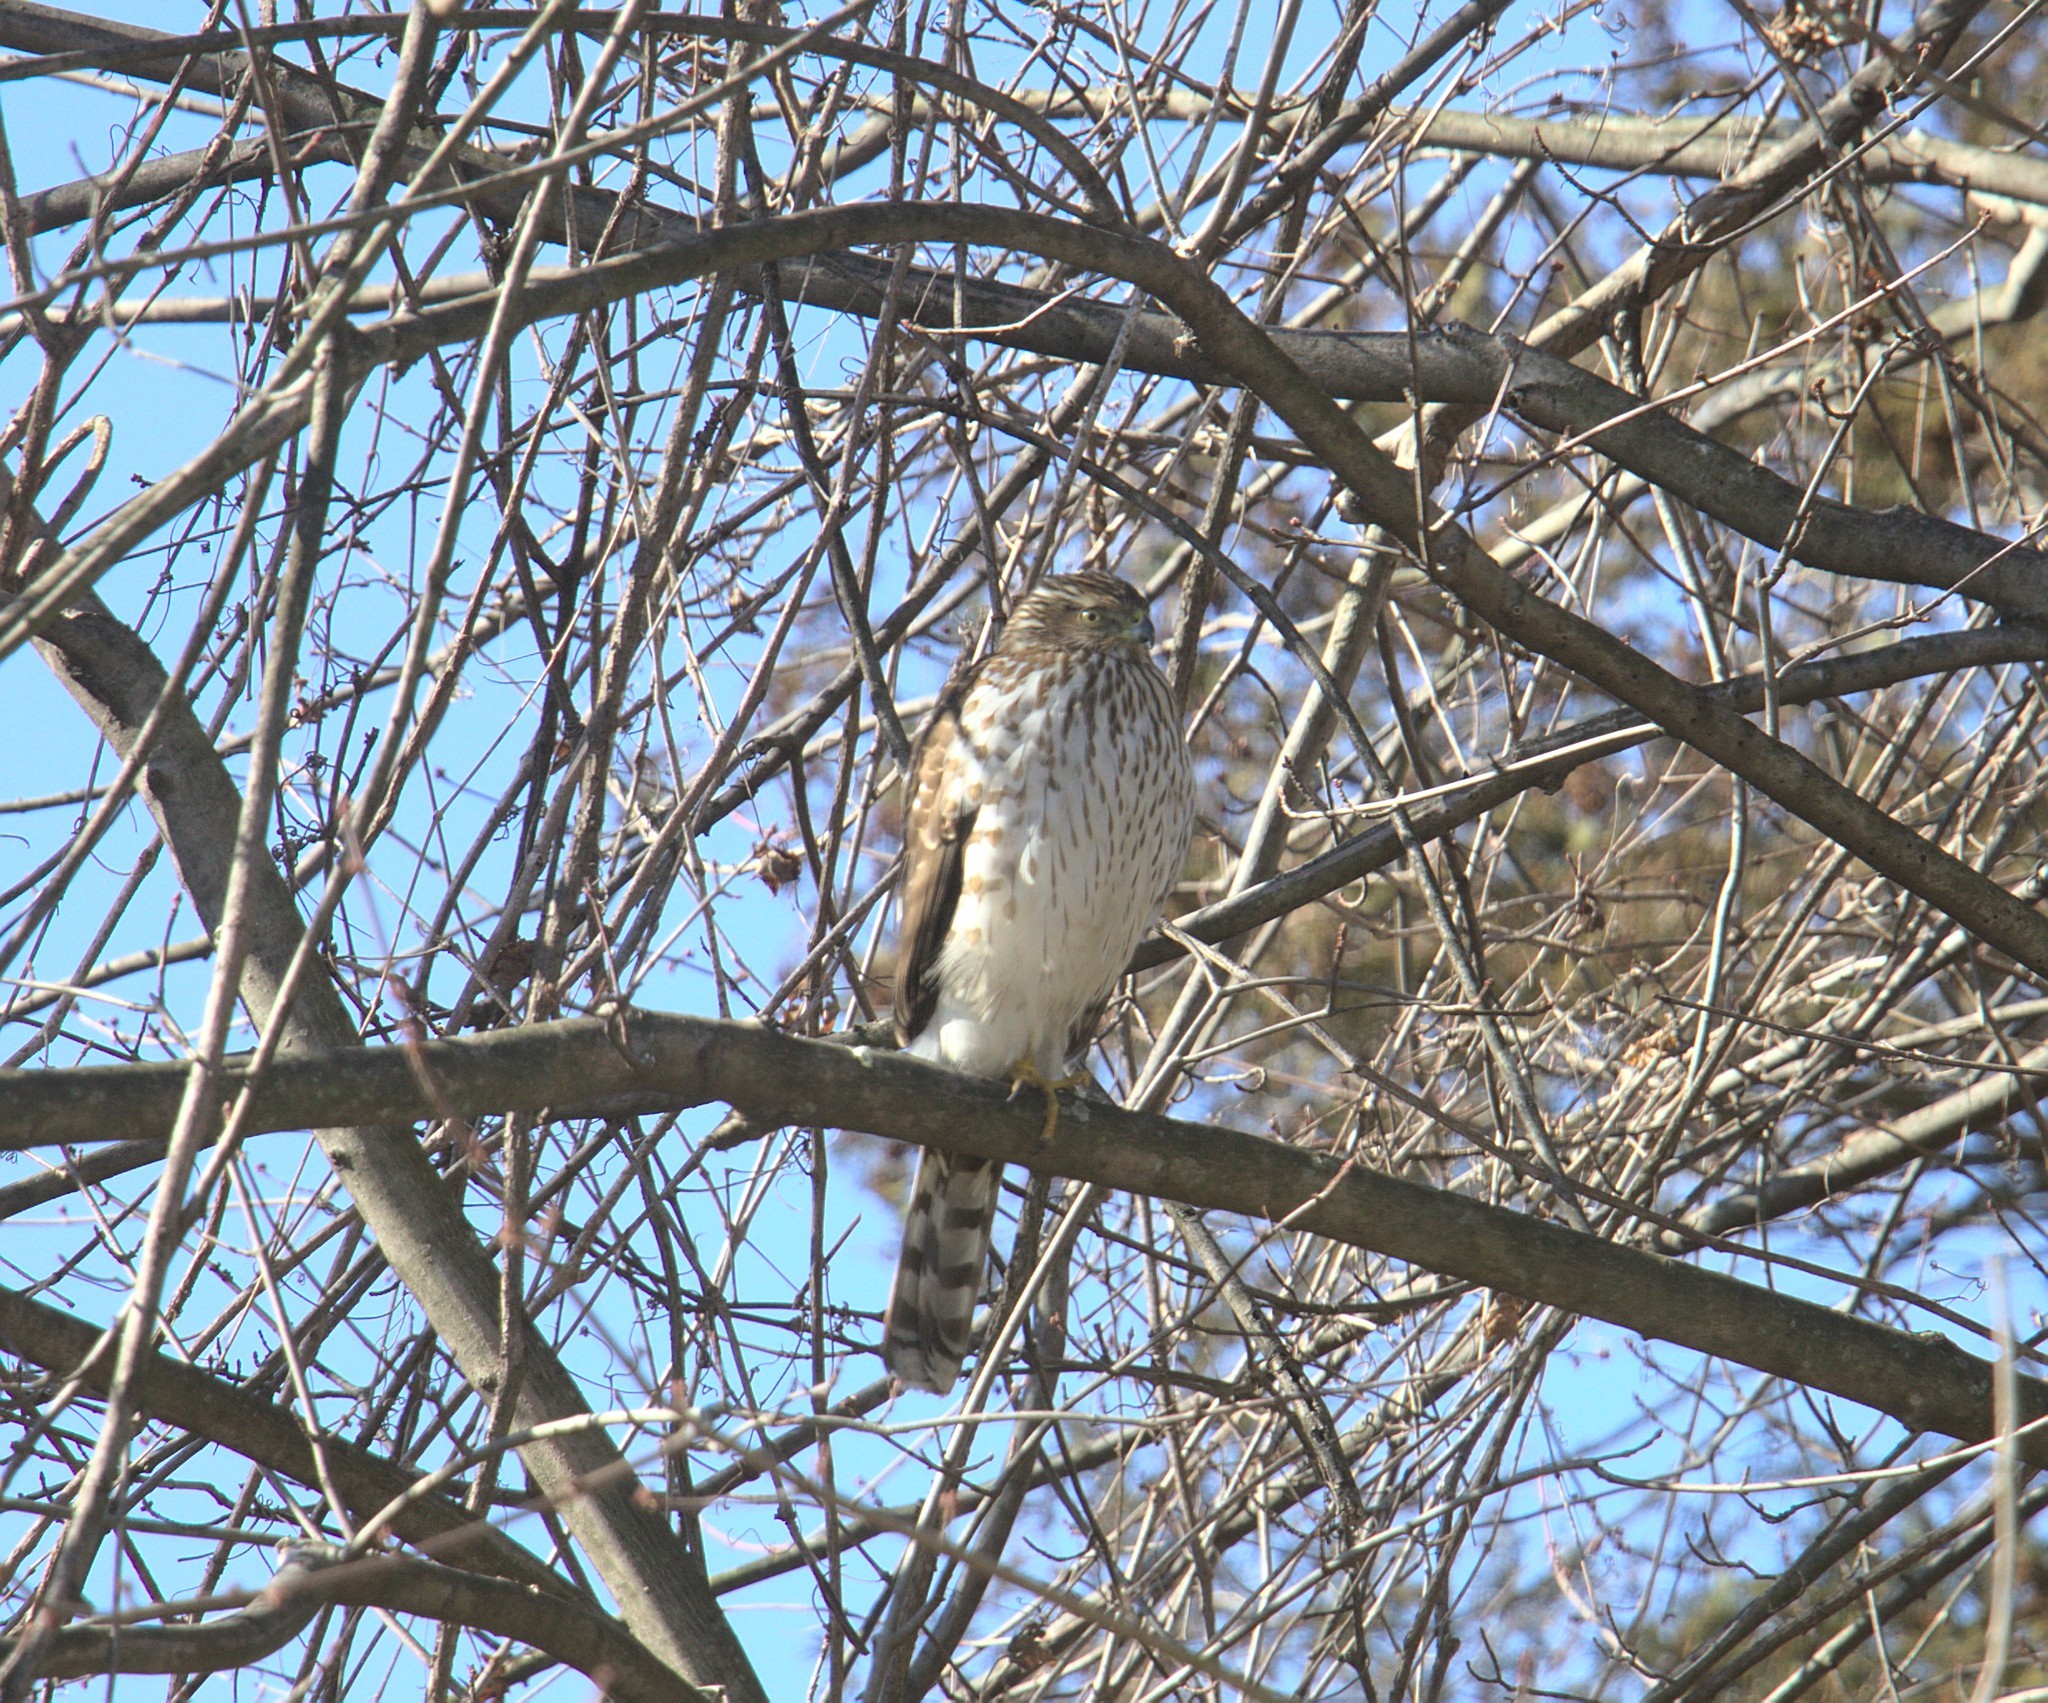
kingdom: Animalia
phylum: Chordata
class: Aves
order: Accipitriformes
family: Accipitridae
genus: Accipiter
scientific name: Accipiter cooperii
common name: Cooper's hawk
